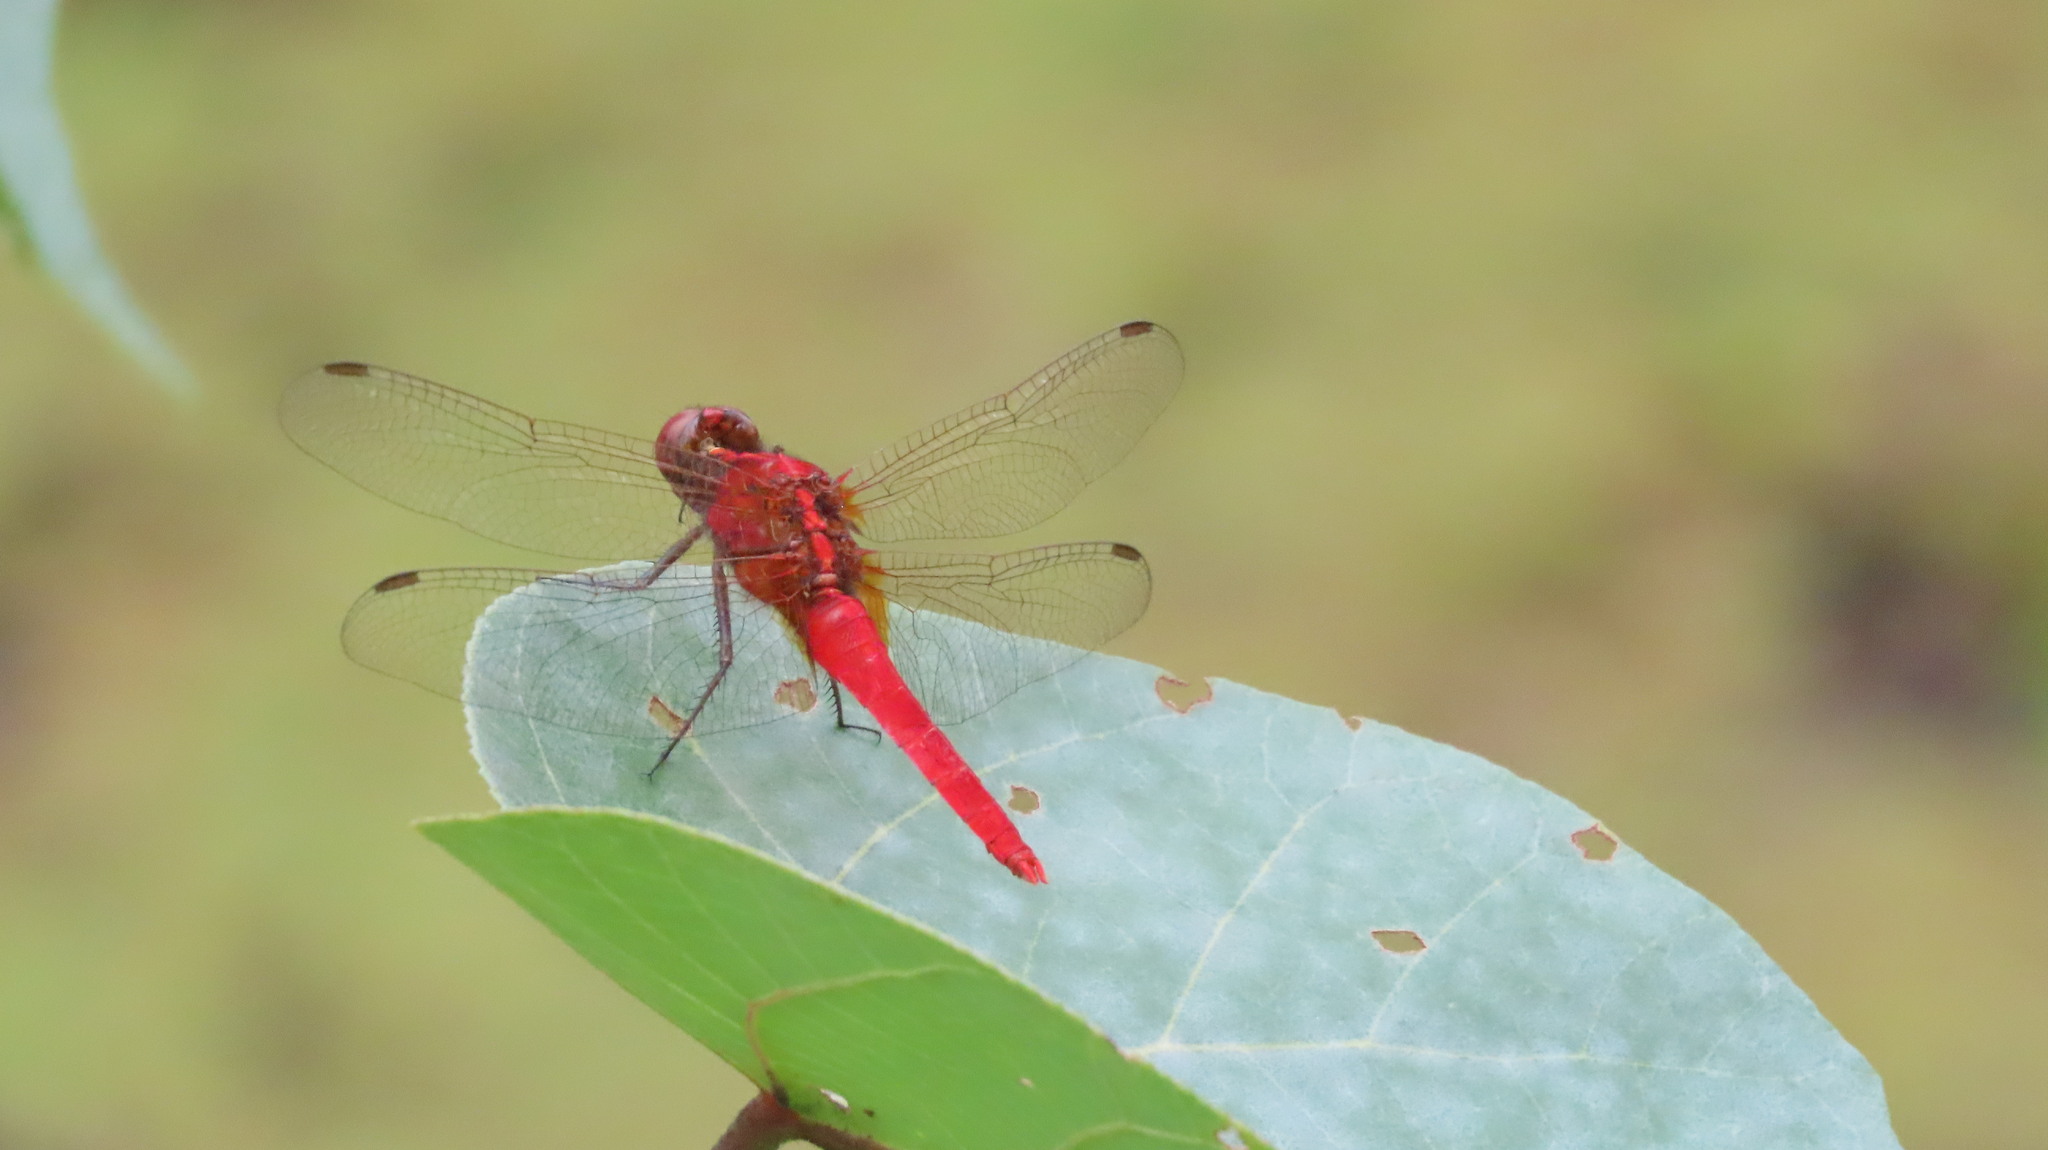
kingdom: Animalia
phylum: Arthropoda
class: Insecta
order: Odonata
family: Libellulidae
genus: Rhodothemis
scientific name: Rhodothemis rufa
